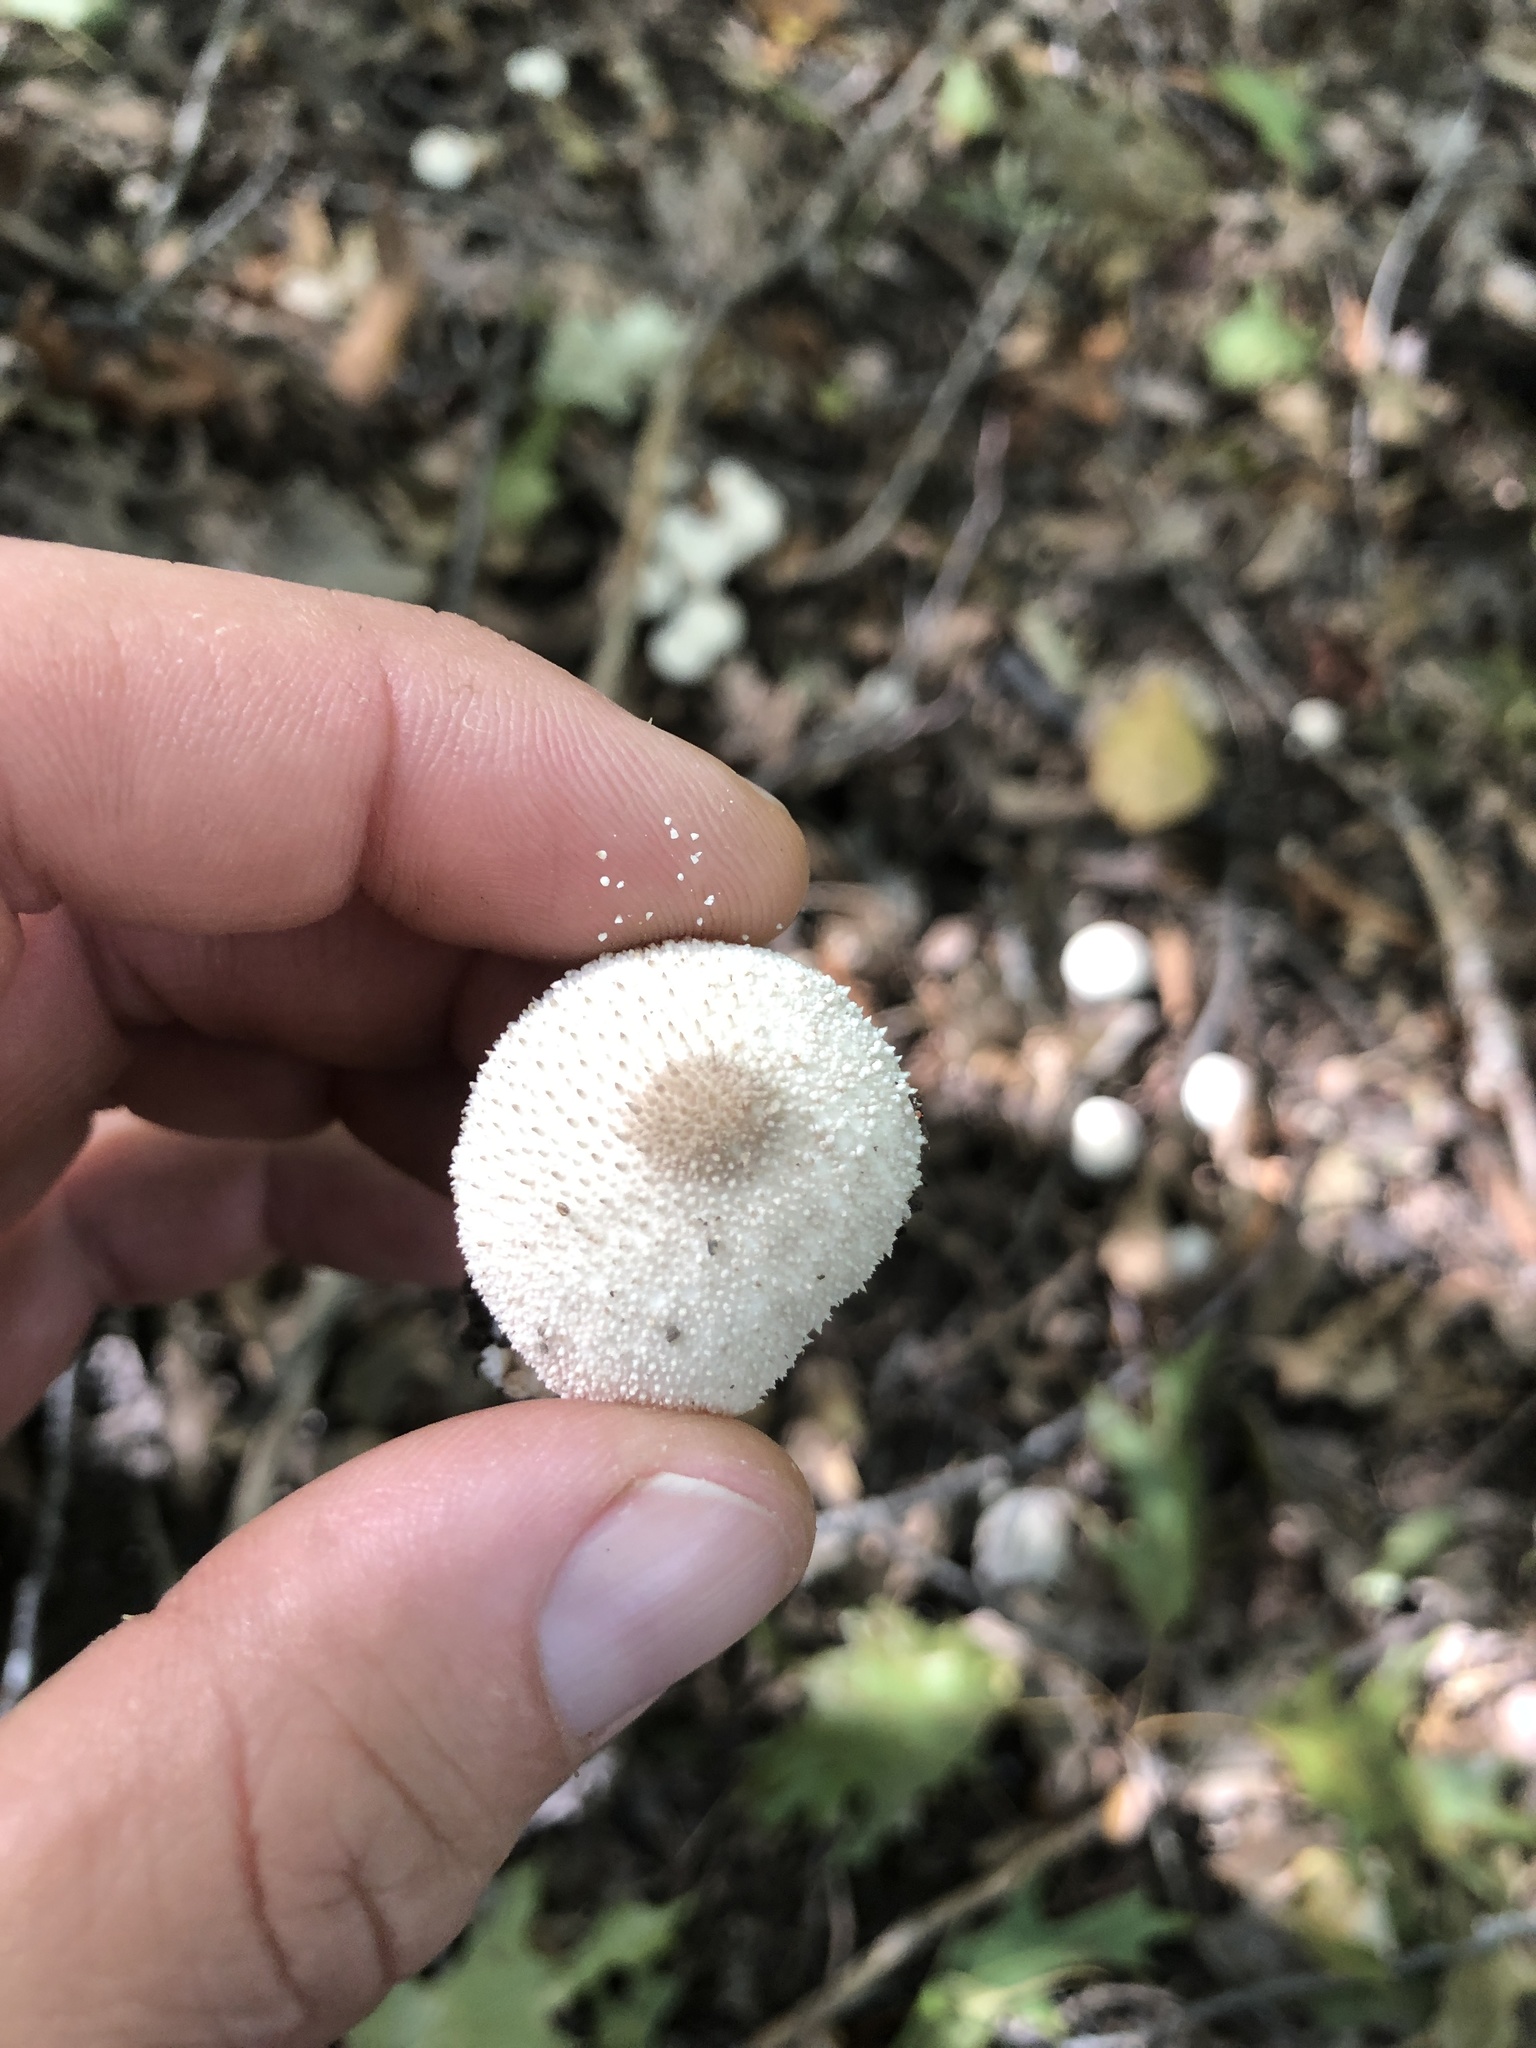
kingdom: Fungi
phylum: Basidiomycota
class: Agaricomycetes
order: Agaricales
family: Lycoperdaceae
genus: Lycoperdon
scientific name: Lycoperdon perlatum
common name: Common puffball
